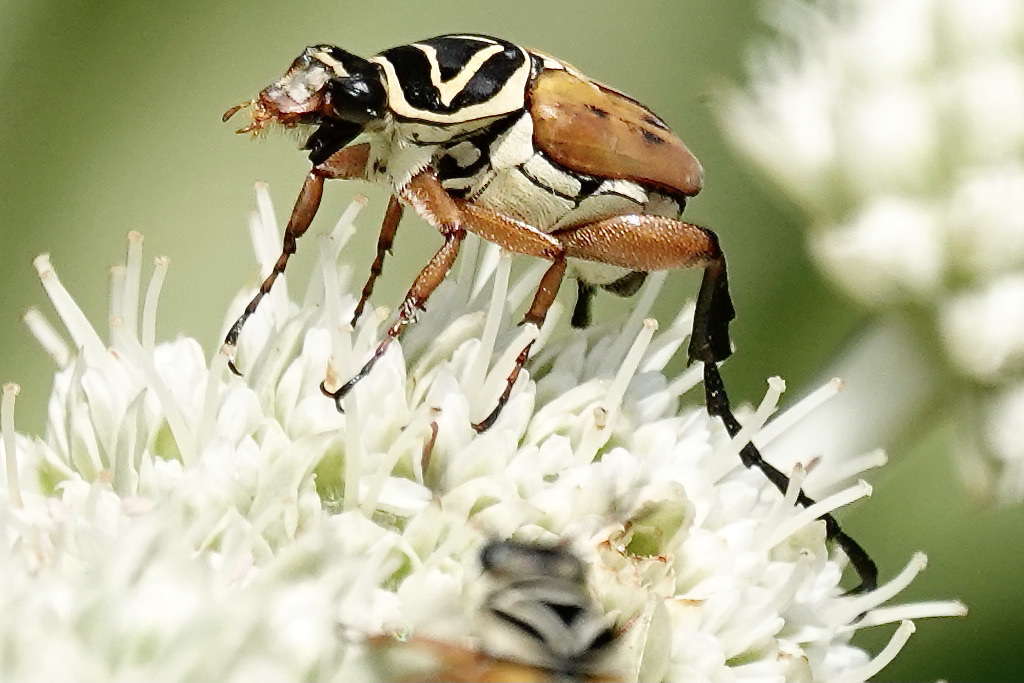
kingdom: Animalia
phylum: Arthropoda
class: Insecta
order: Coleoptera
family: Scarabaeidae
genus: Trigonopeltastes
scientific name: Trigonopeltastes delta
